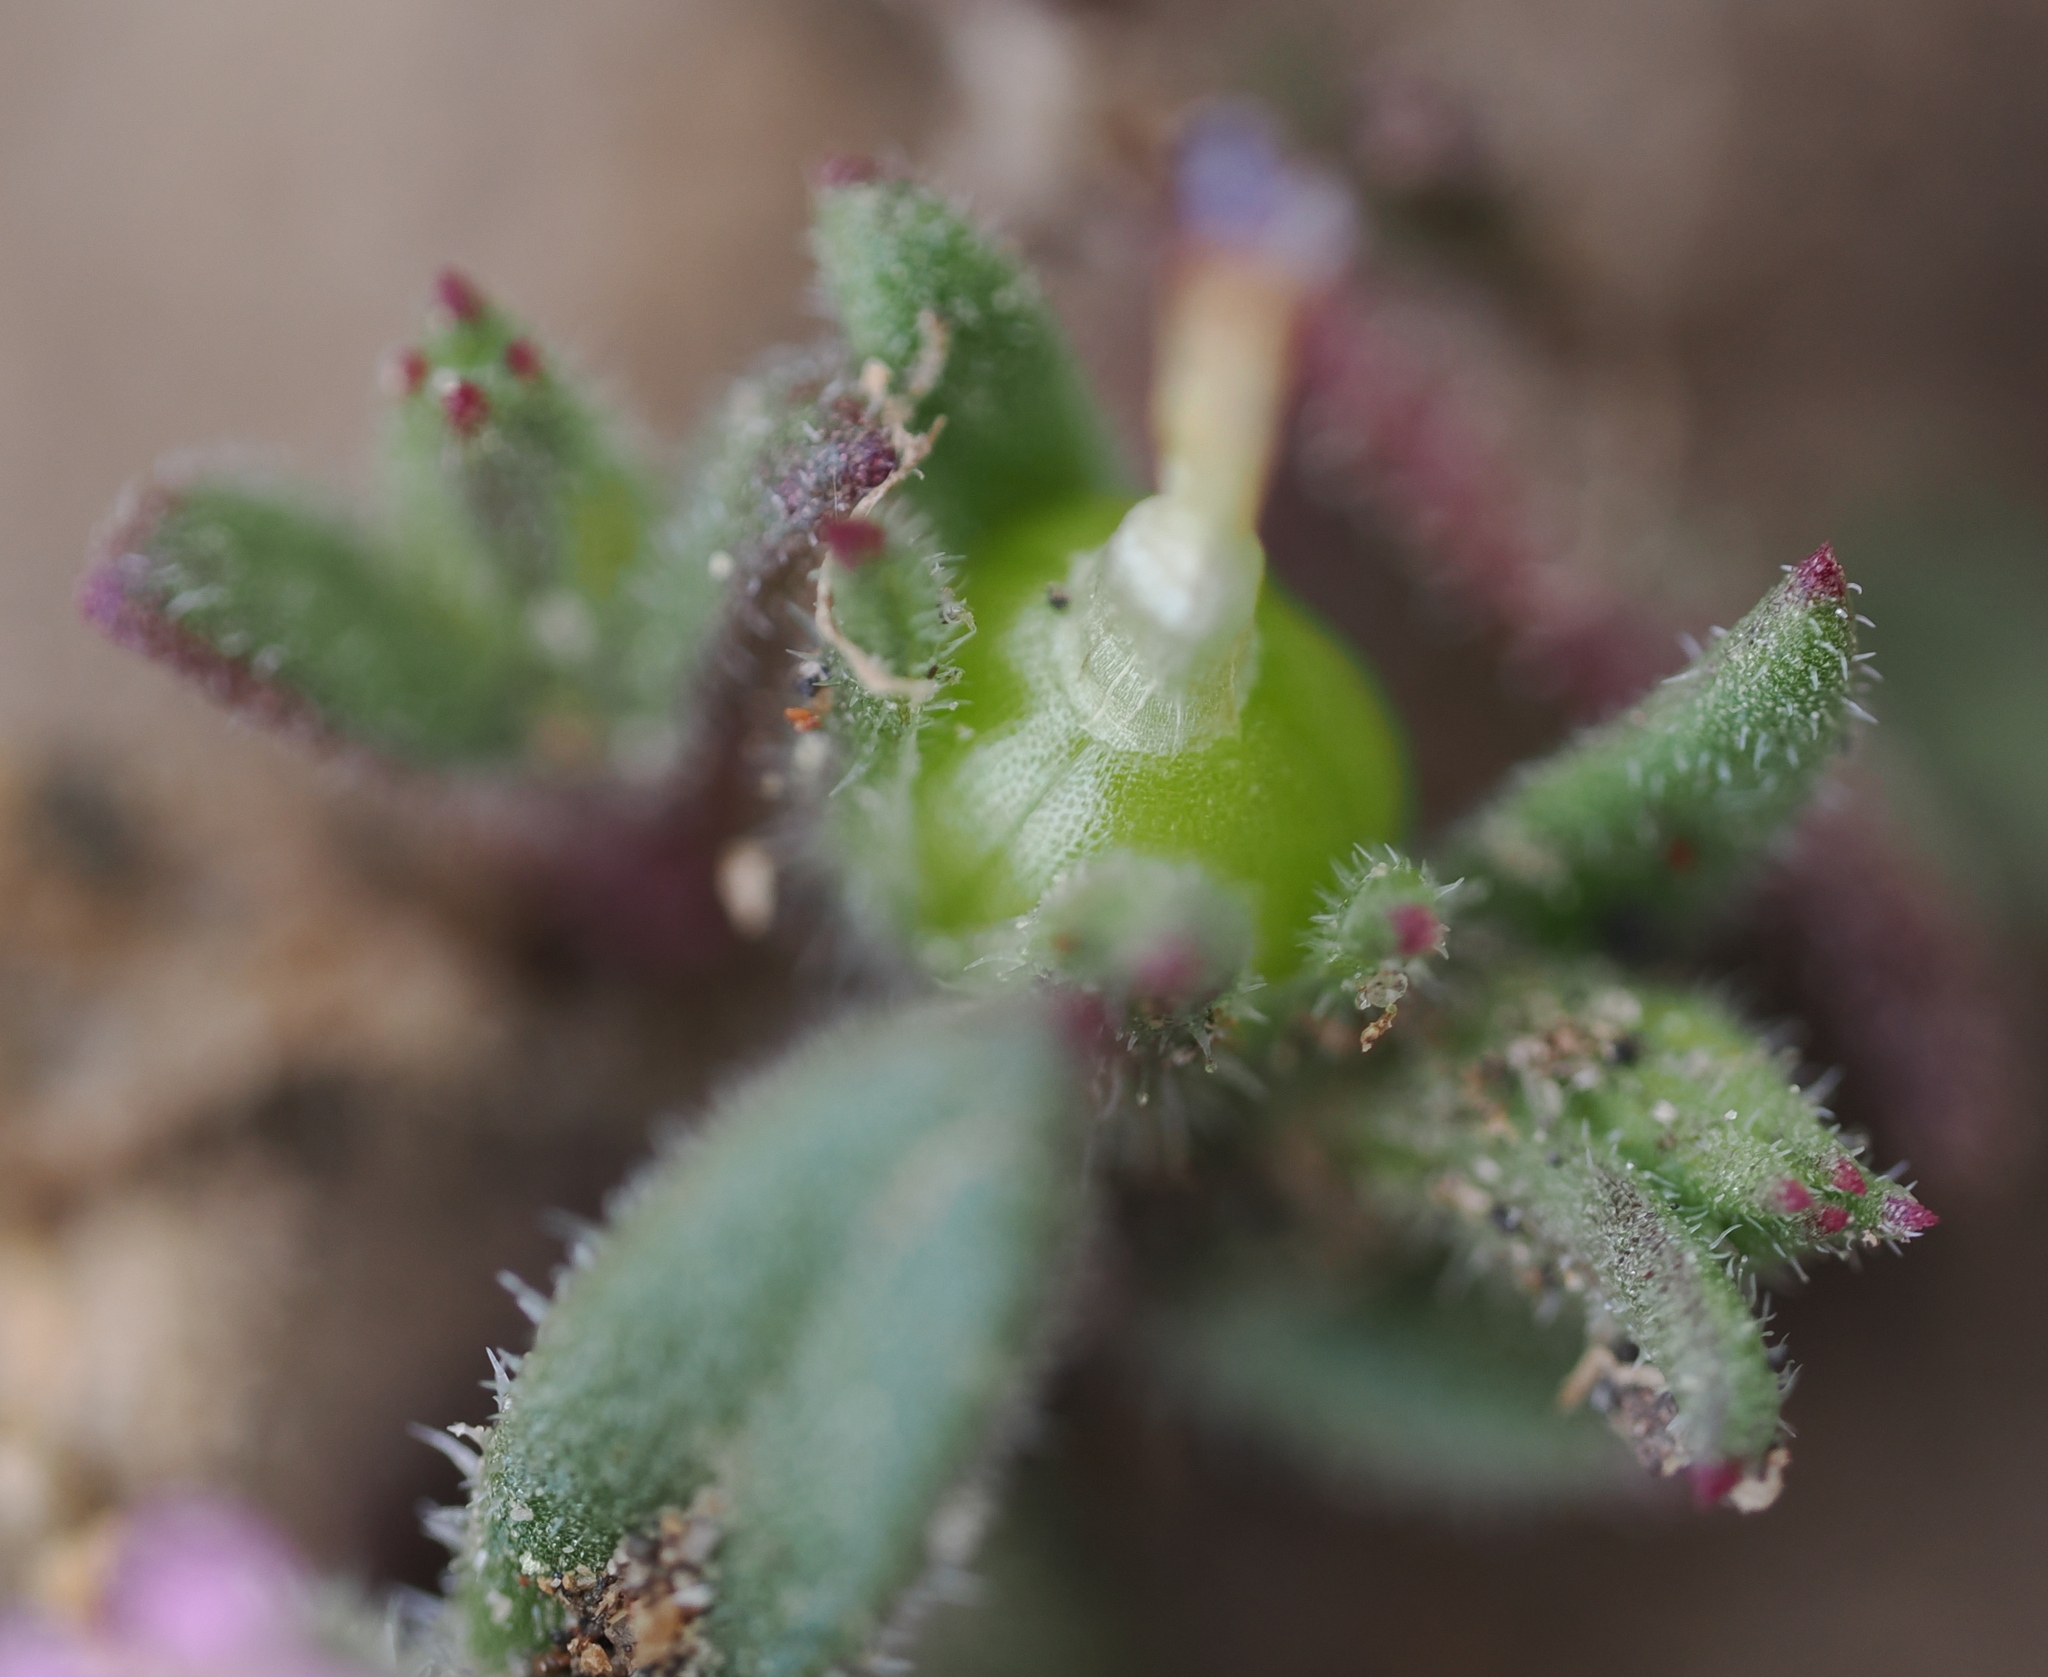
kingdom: Plantae
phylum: Tracheophyta
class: Magnoliopsida
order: Ericales
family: Polemoniaceae
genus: Phlox
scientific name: Phlox gracilis
